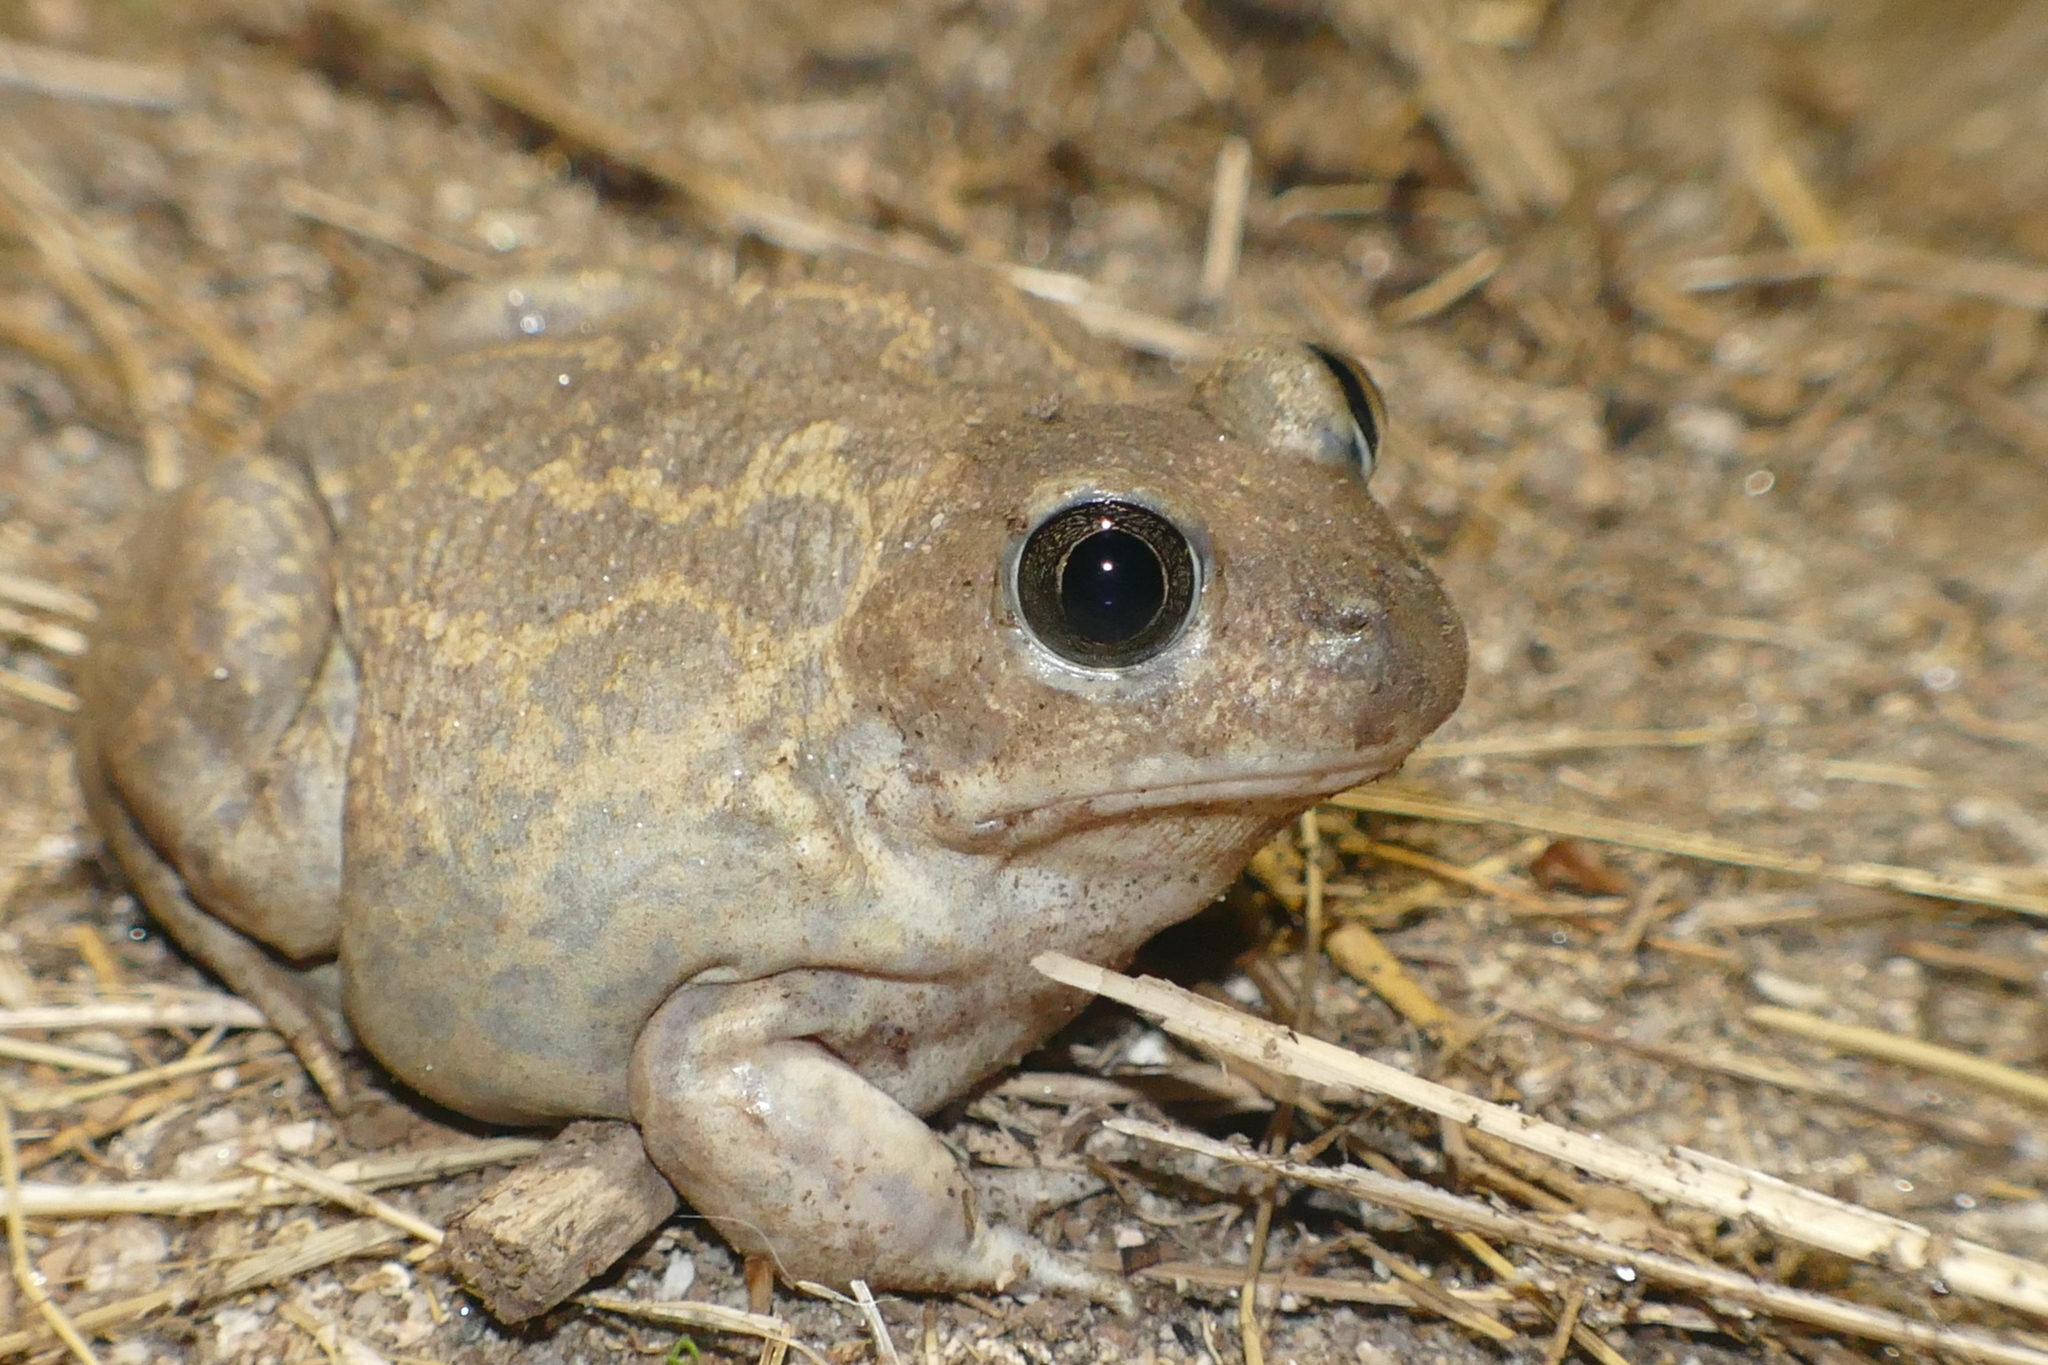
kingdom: Animalia
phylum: Chordata
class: Amphibia
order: Anura
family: Pelobatidae
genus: Pelobates
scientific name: Pelobates cultripes
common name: Western spadefoot
